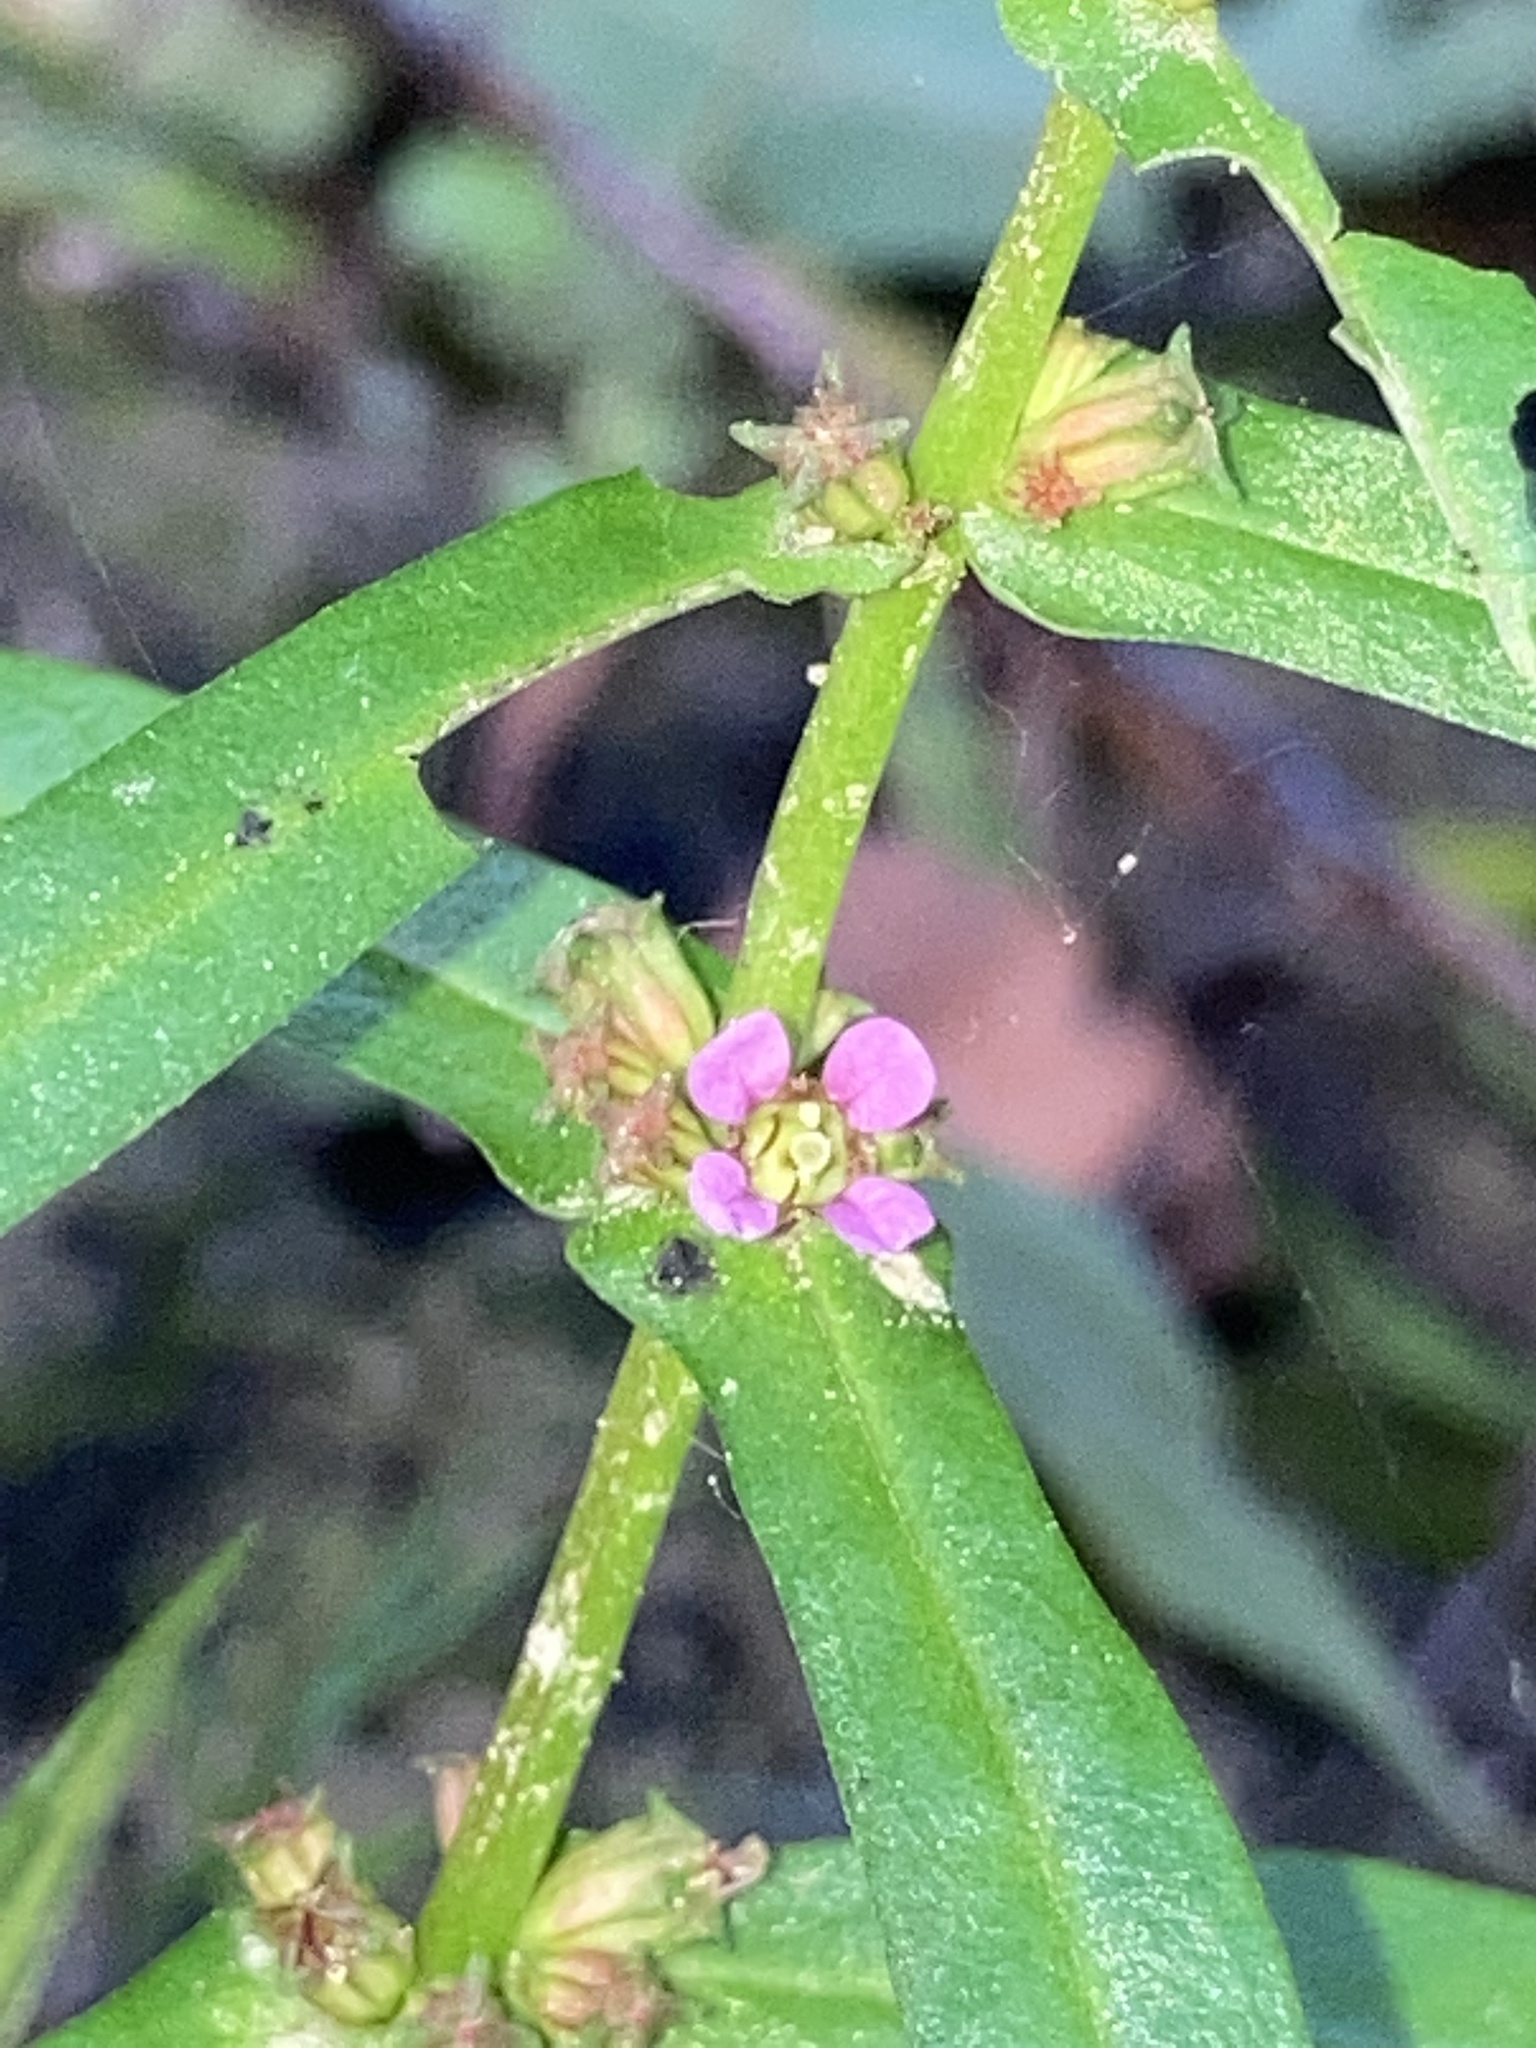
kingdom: Plantae
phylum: Tracheophyta
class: Magnoliopsida
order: Myrtales
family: Lythraceae
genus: Ammannia
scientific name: Ammannia coccinea
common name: Valley redstem
